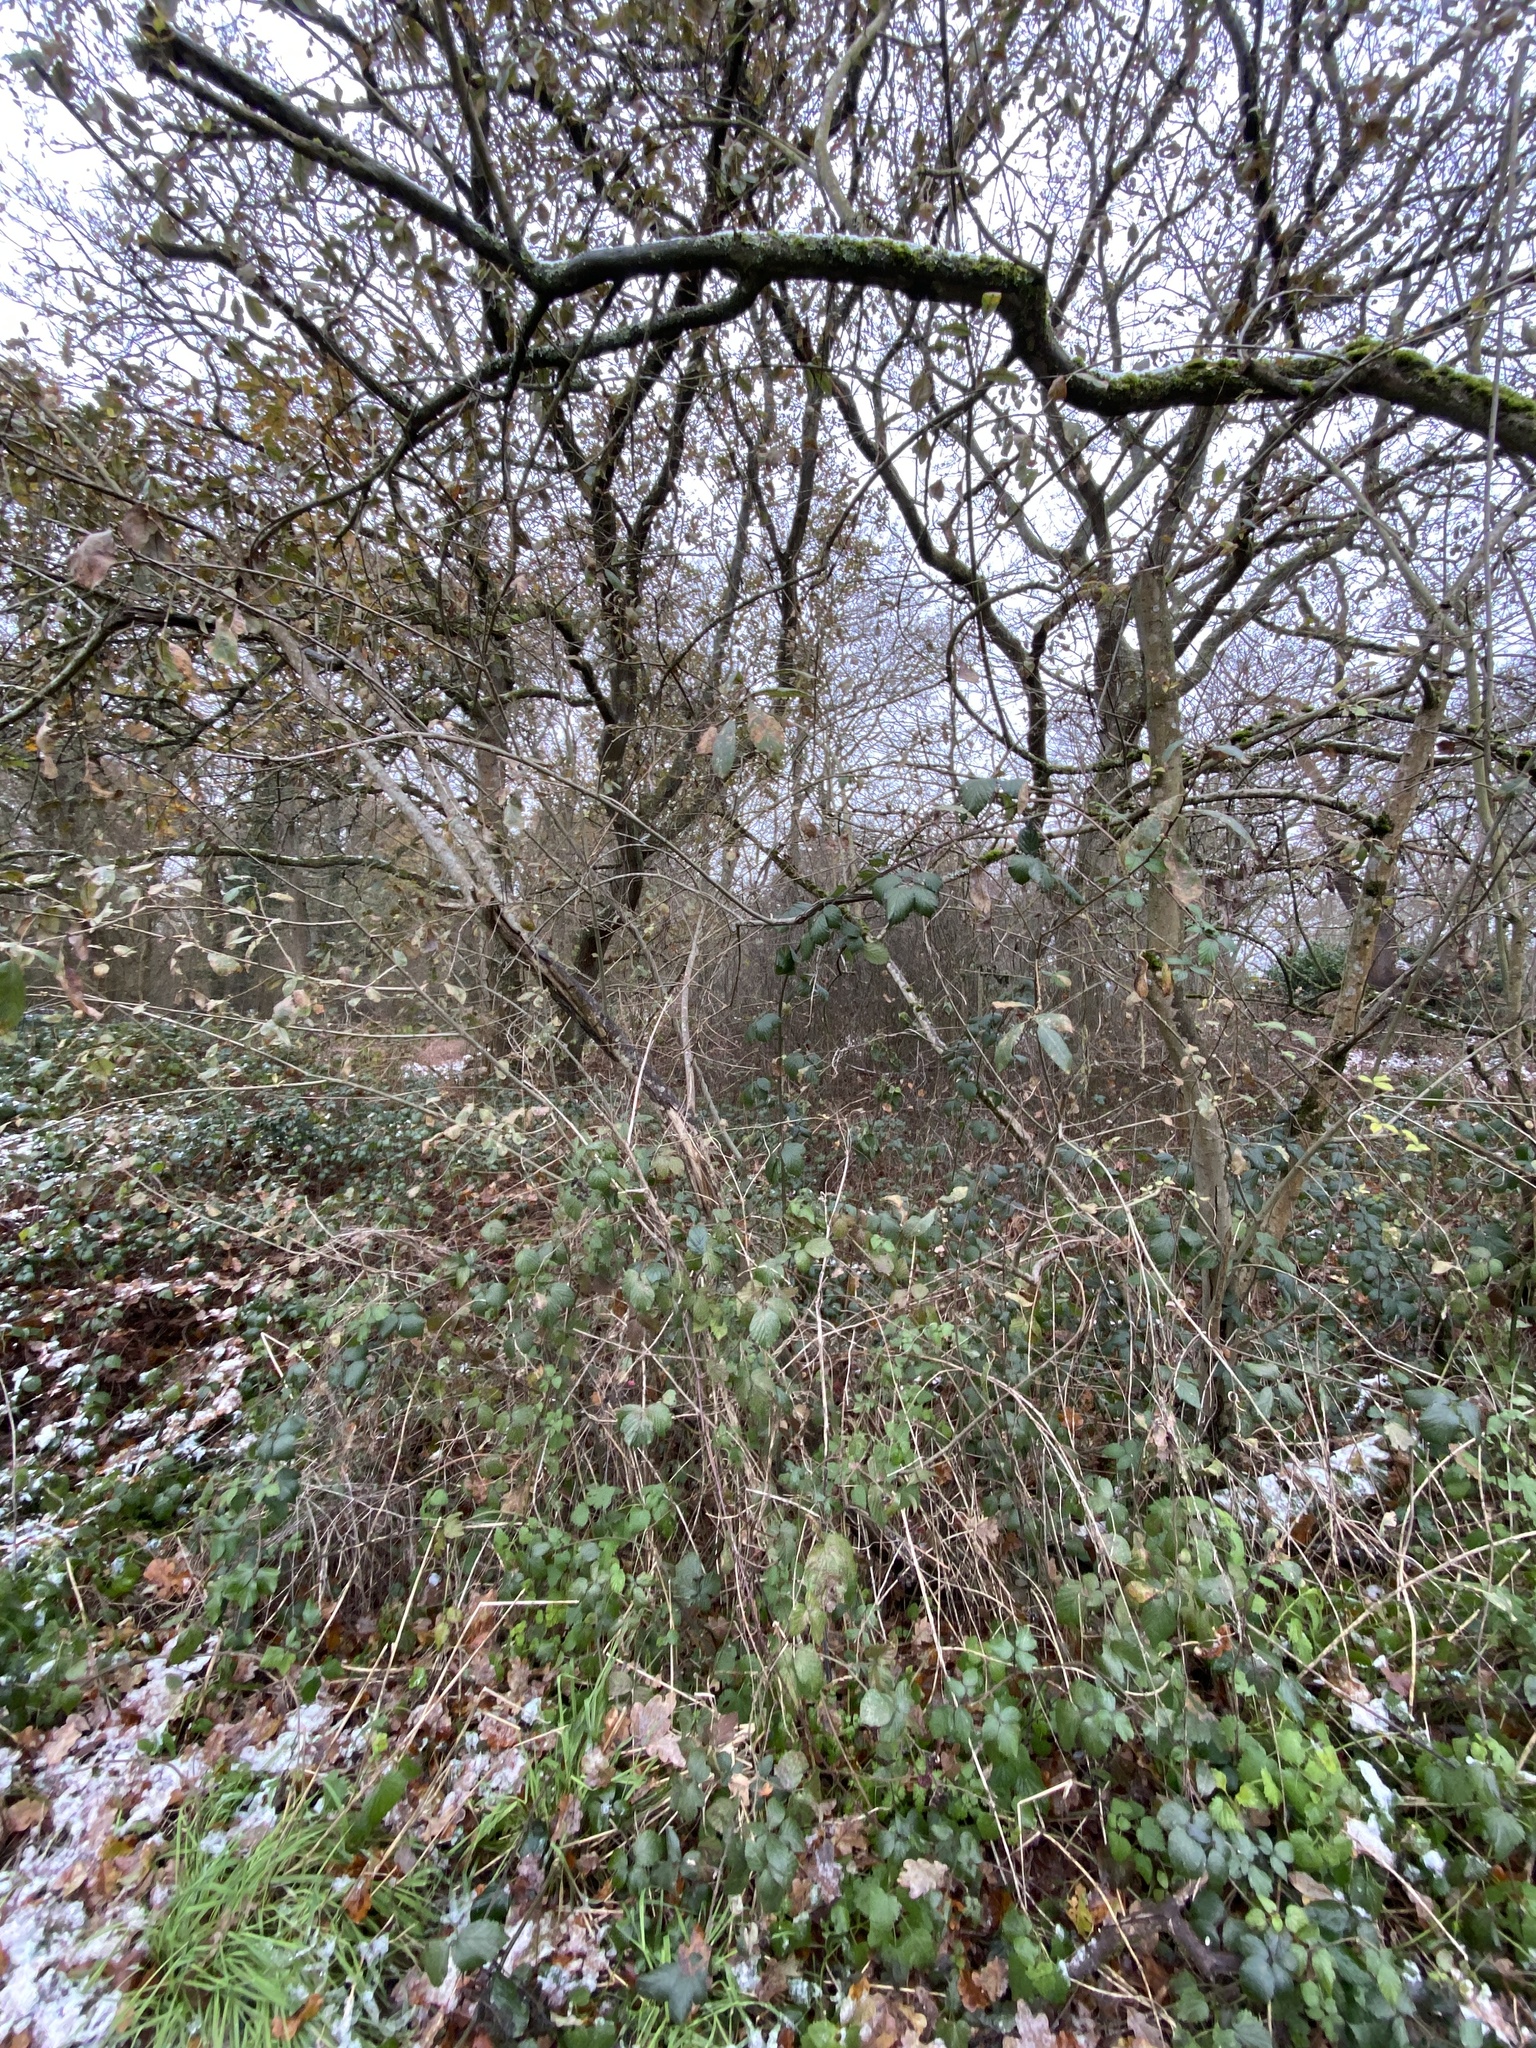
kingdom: Plantae
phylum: Tracheophyta
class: Magnoliopsida
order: Malpighiales
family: Salicaceae
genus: Salix
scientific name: Salix atrocinerea
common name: Rusty willow
